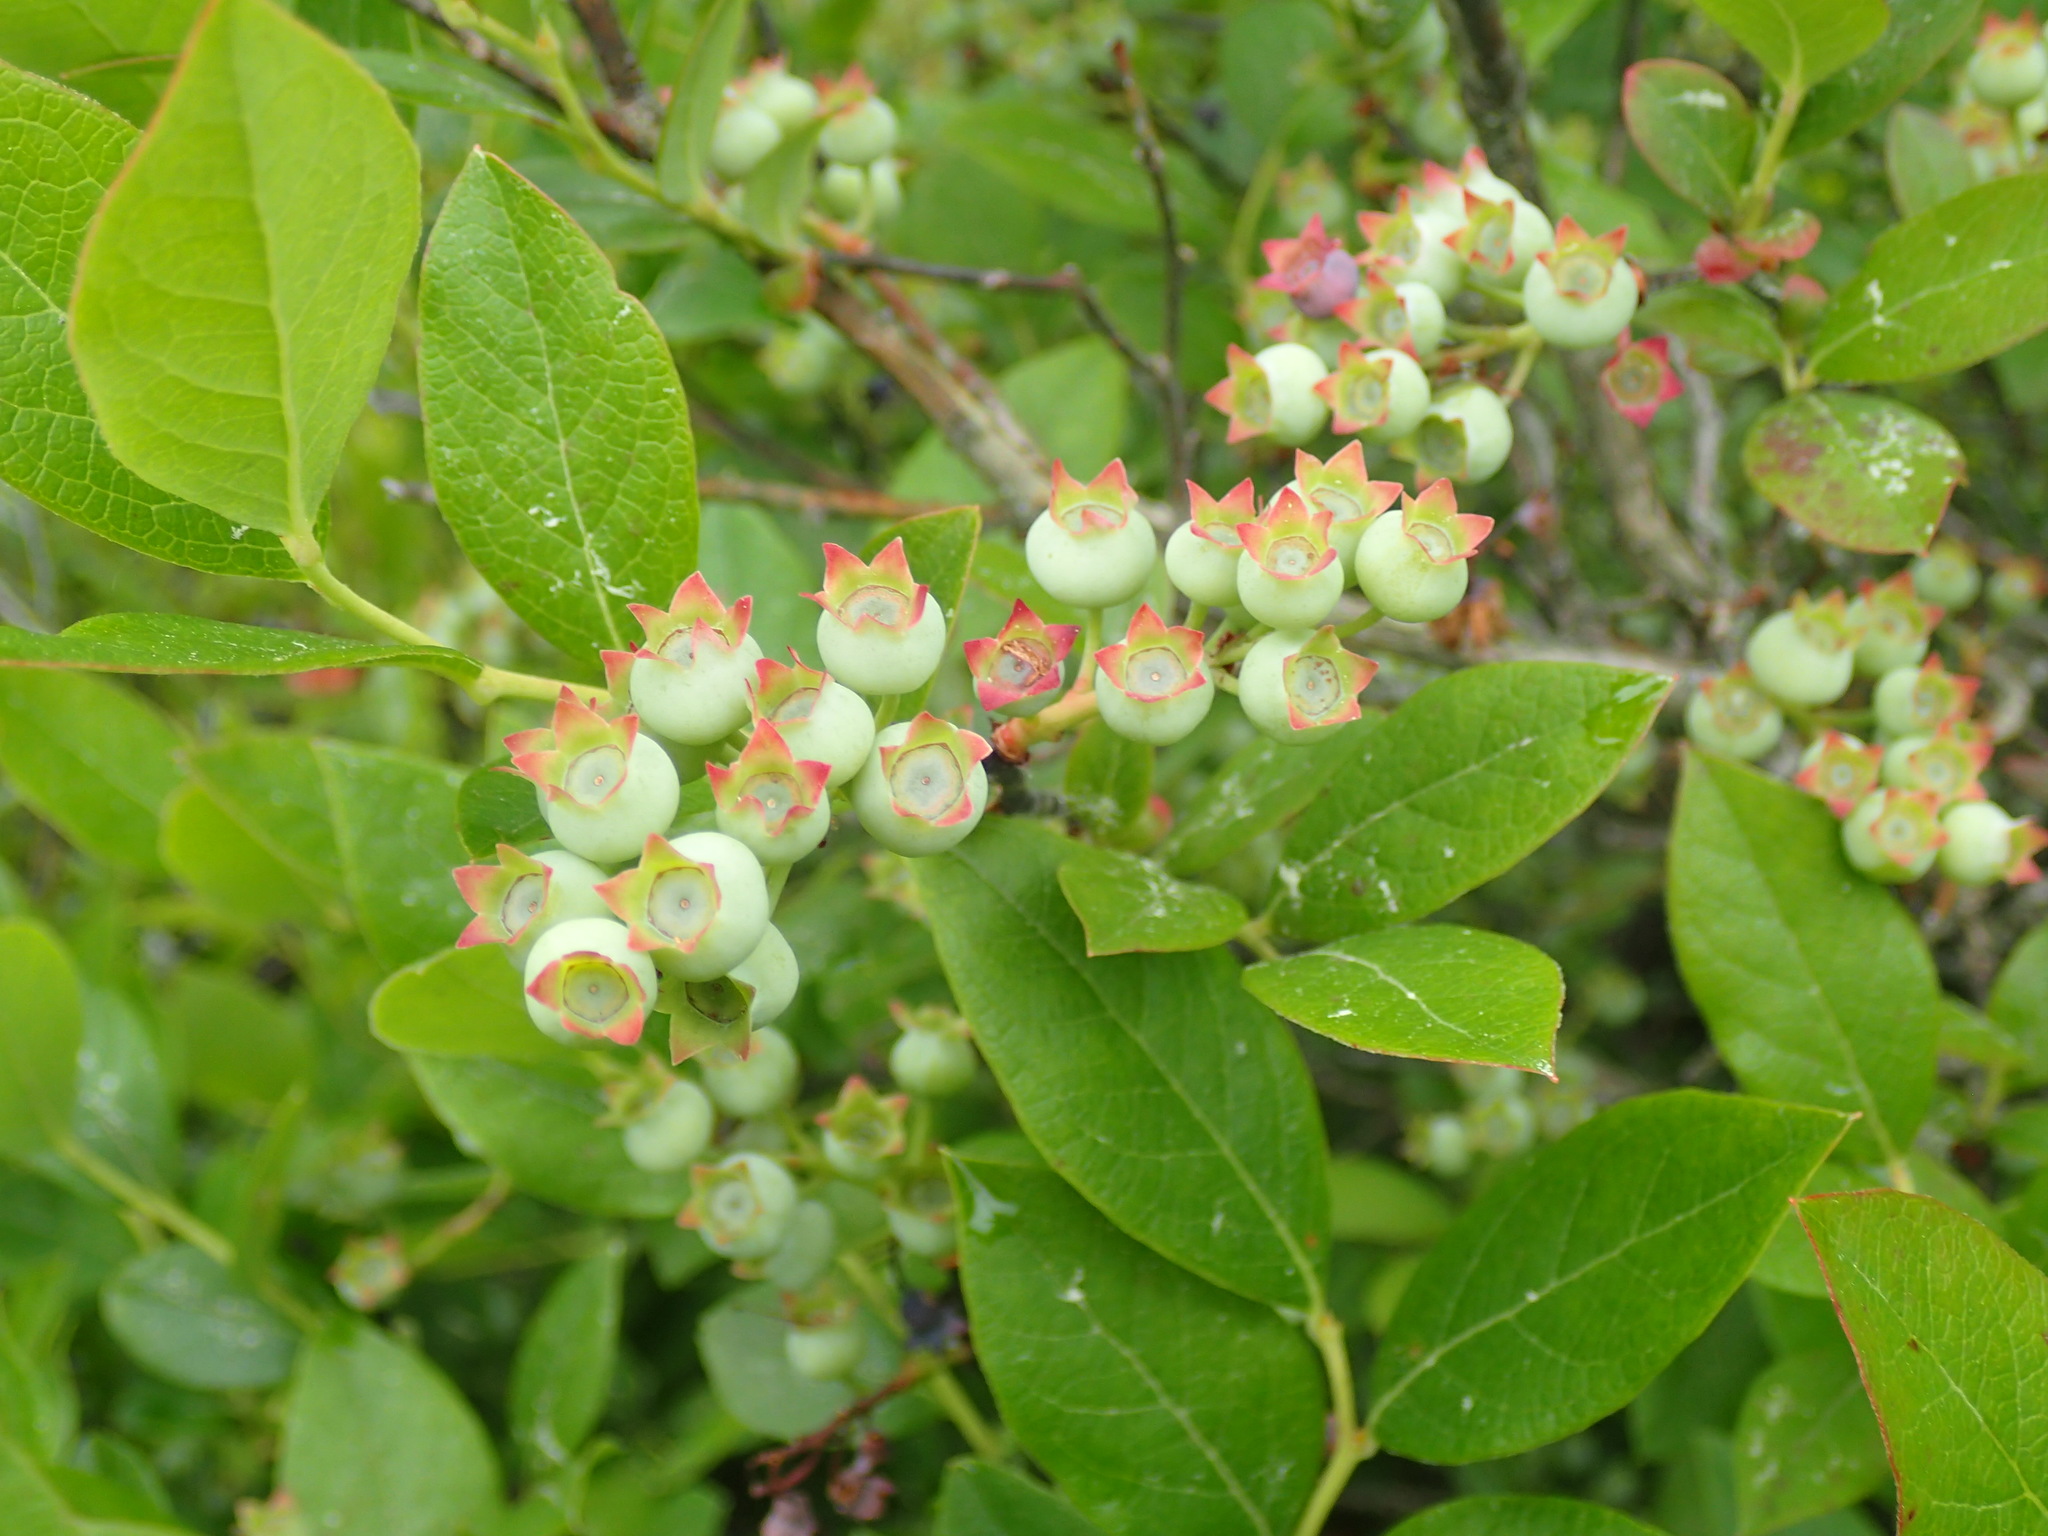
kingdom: Plantae
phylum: Tracheophyta
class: Magnoliopsida
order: Ericales
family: Ericaceae
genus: Vaccinium
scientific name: Vaccinium corymbosum
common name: Blueberry
